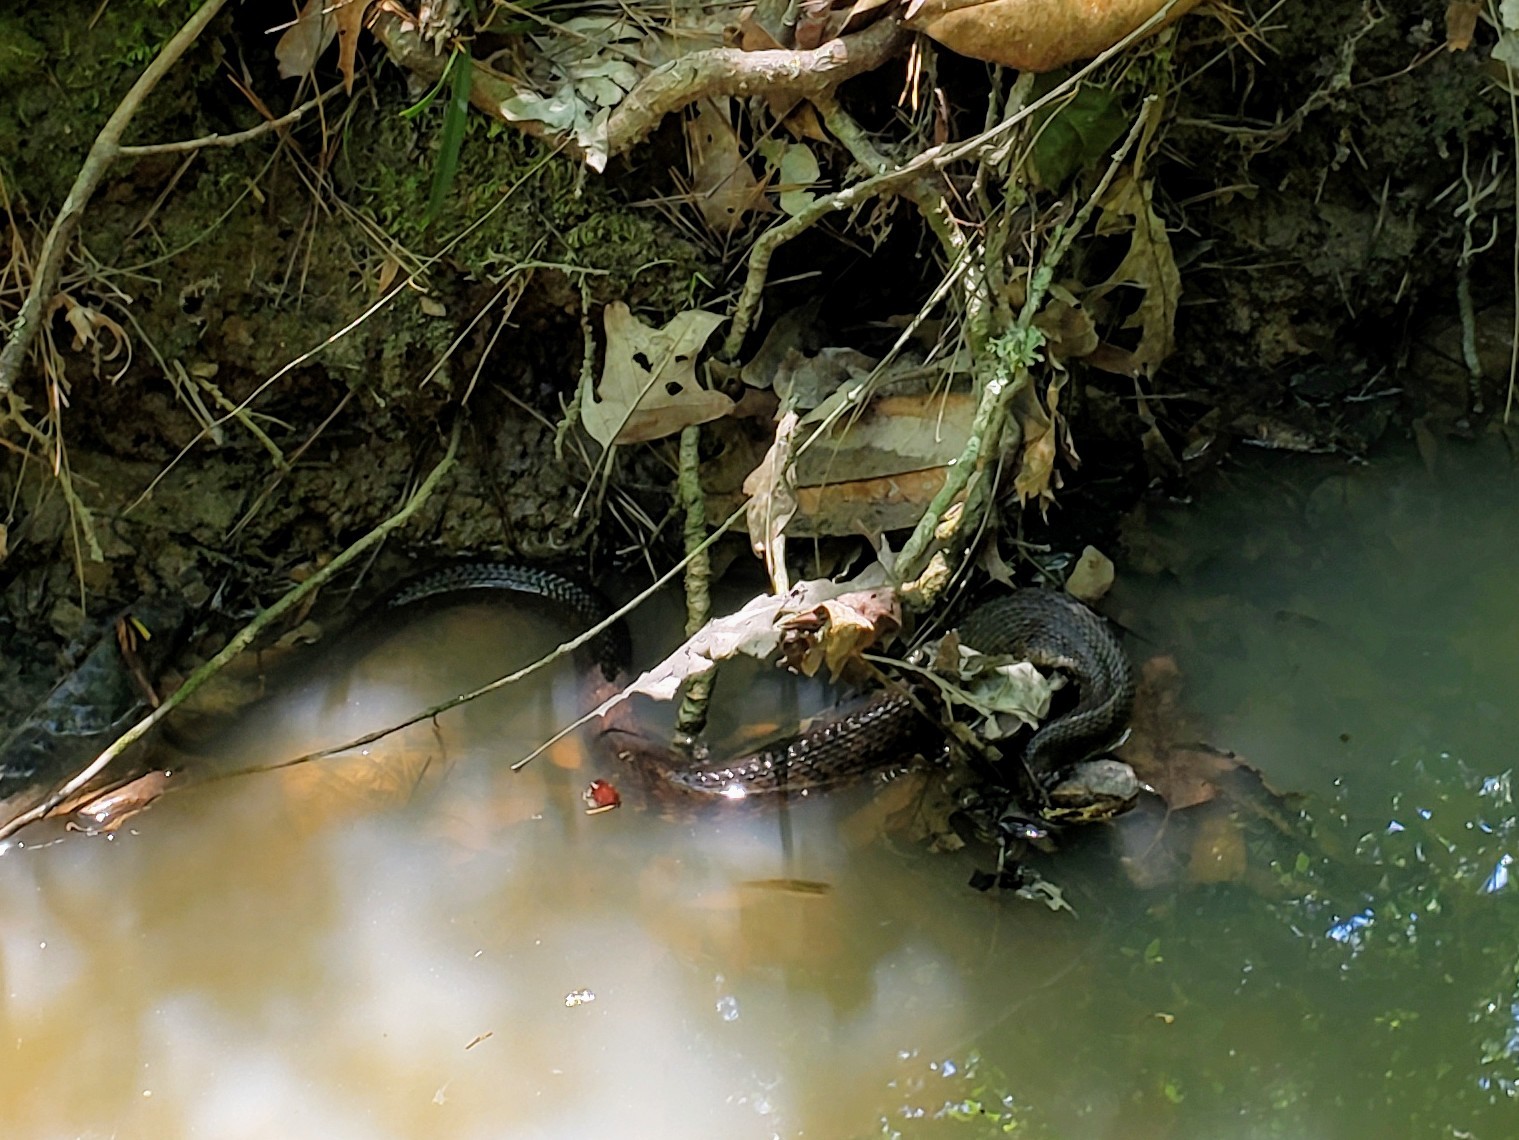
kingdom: Animalia
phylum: Chordata
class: Squamata
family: Viperidae
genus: Agkistrodon
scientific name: Agkistrodon piscivorus
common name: Cottonmouth
